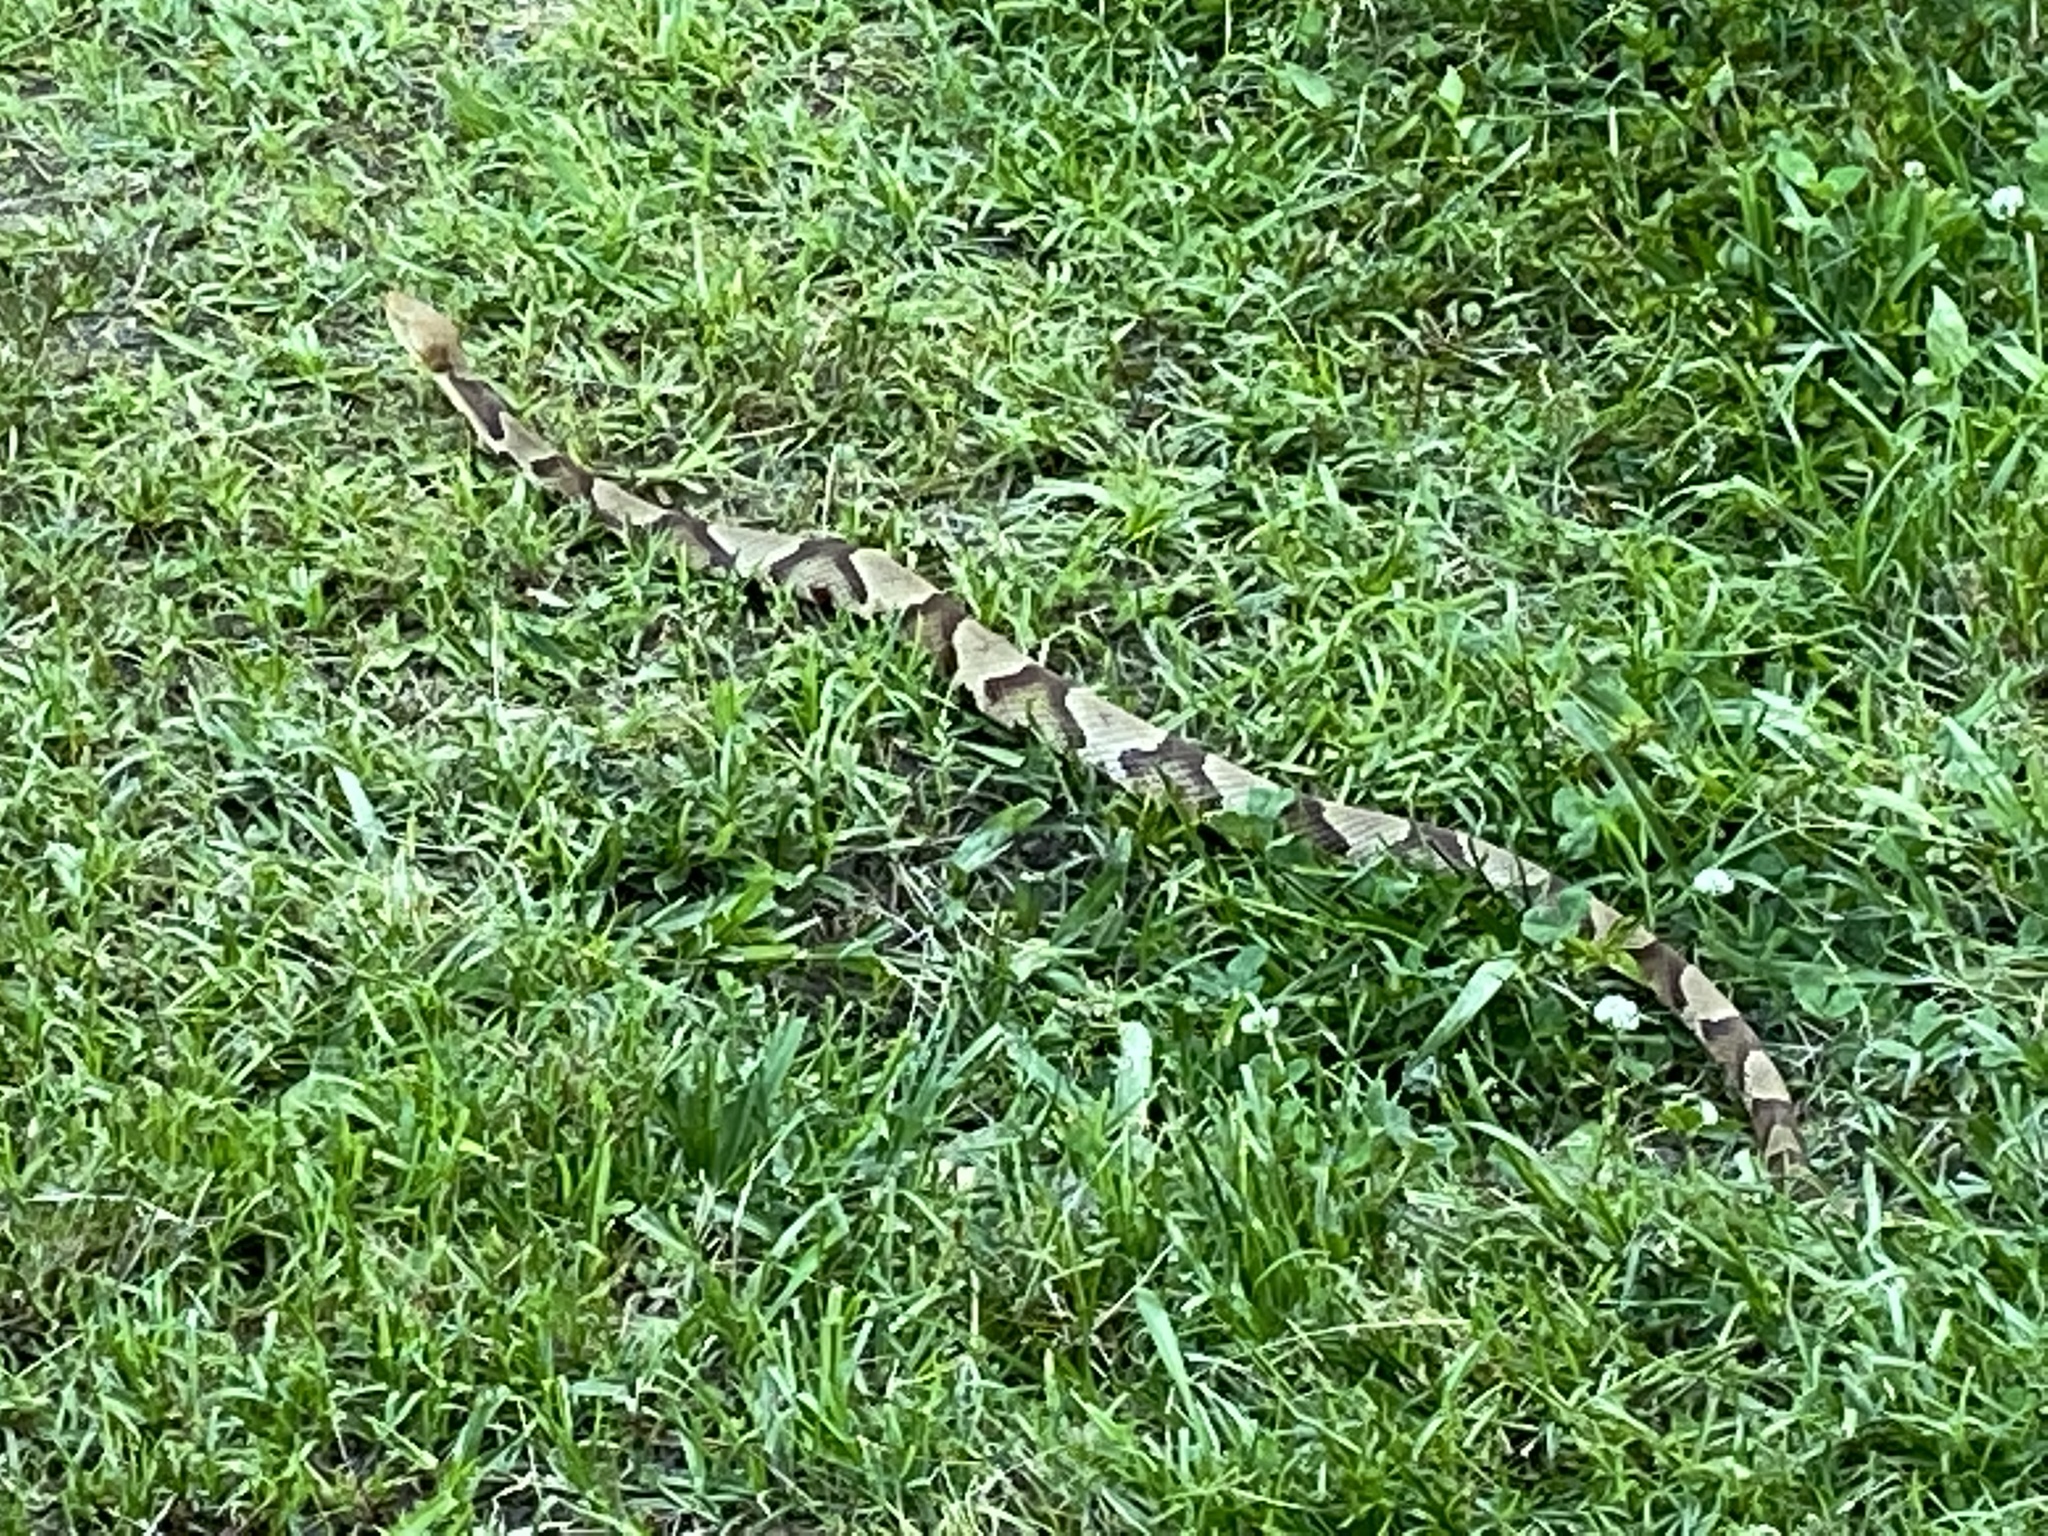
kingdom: Animalia
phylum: Chordata
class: Squamata
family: Viperidae
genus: Agkistrodon
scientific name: Agkistrodon contortrix
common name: Northern copperhead
